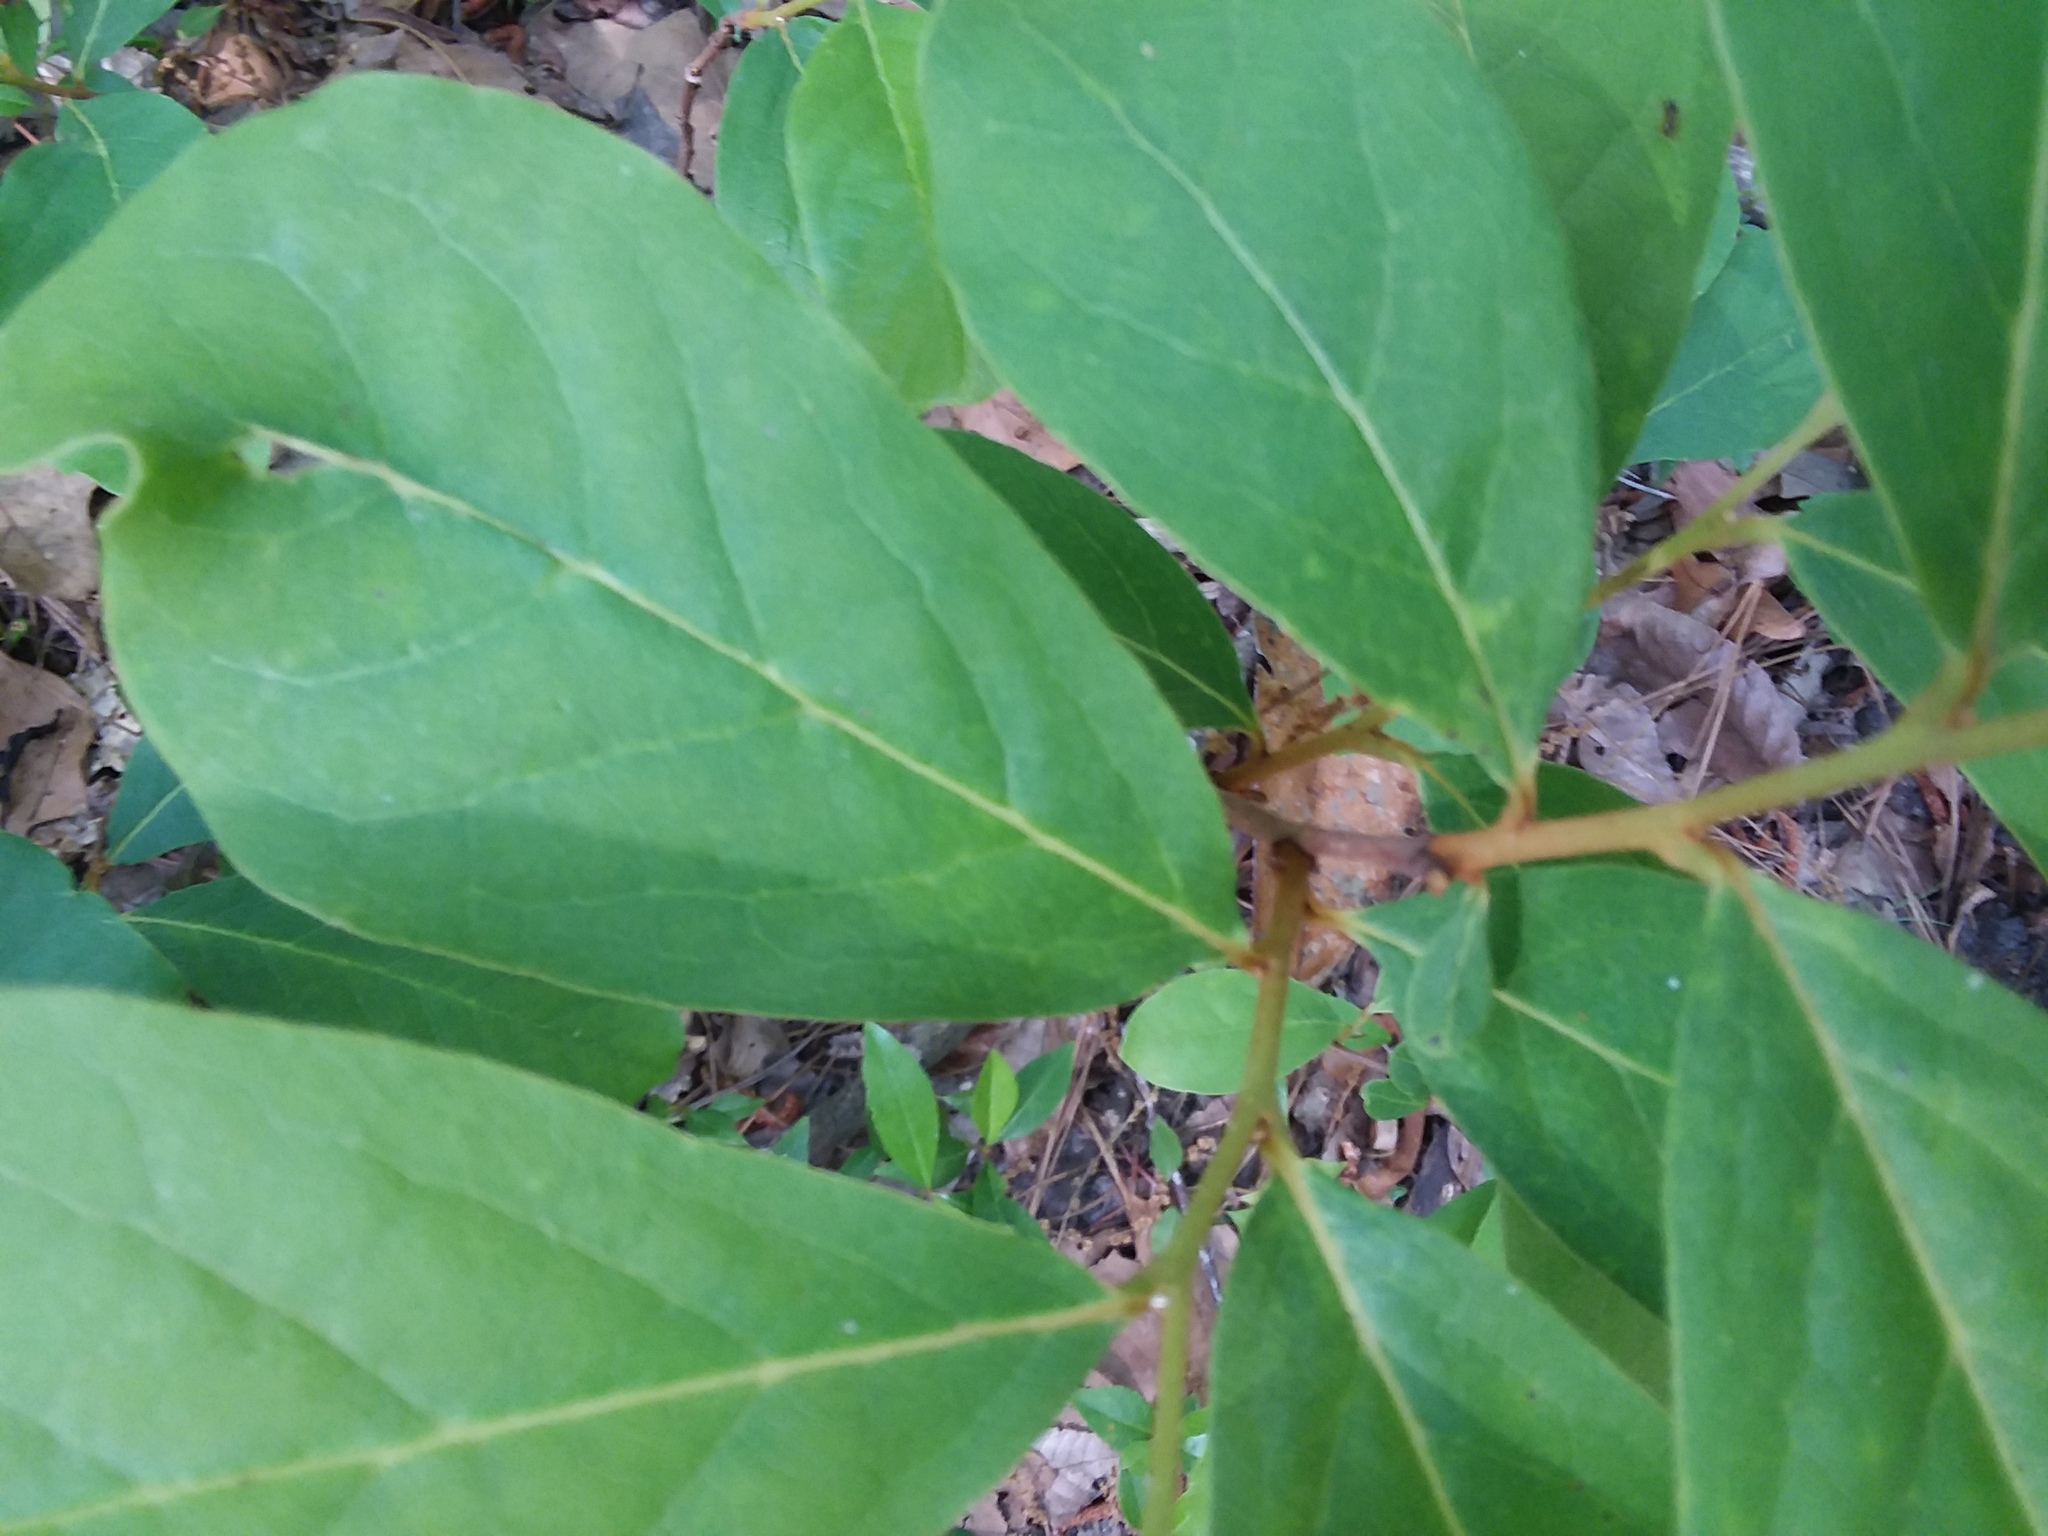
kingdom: Plantae
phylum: Tracheophyta
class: Magnoliopsida
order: Magnoliales
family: Annonaceae
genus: Asimina
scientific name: Asimina parviflora
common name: Dwarf pawpaw
